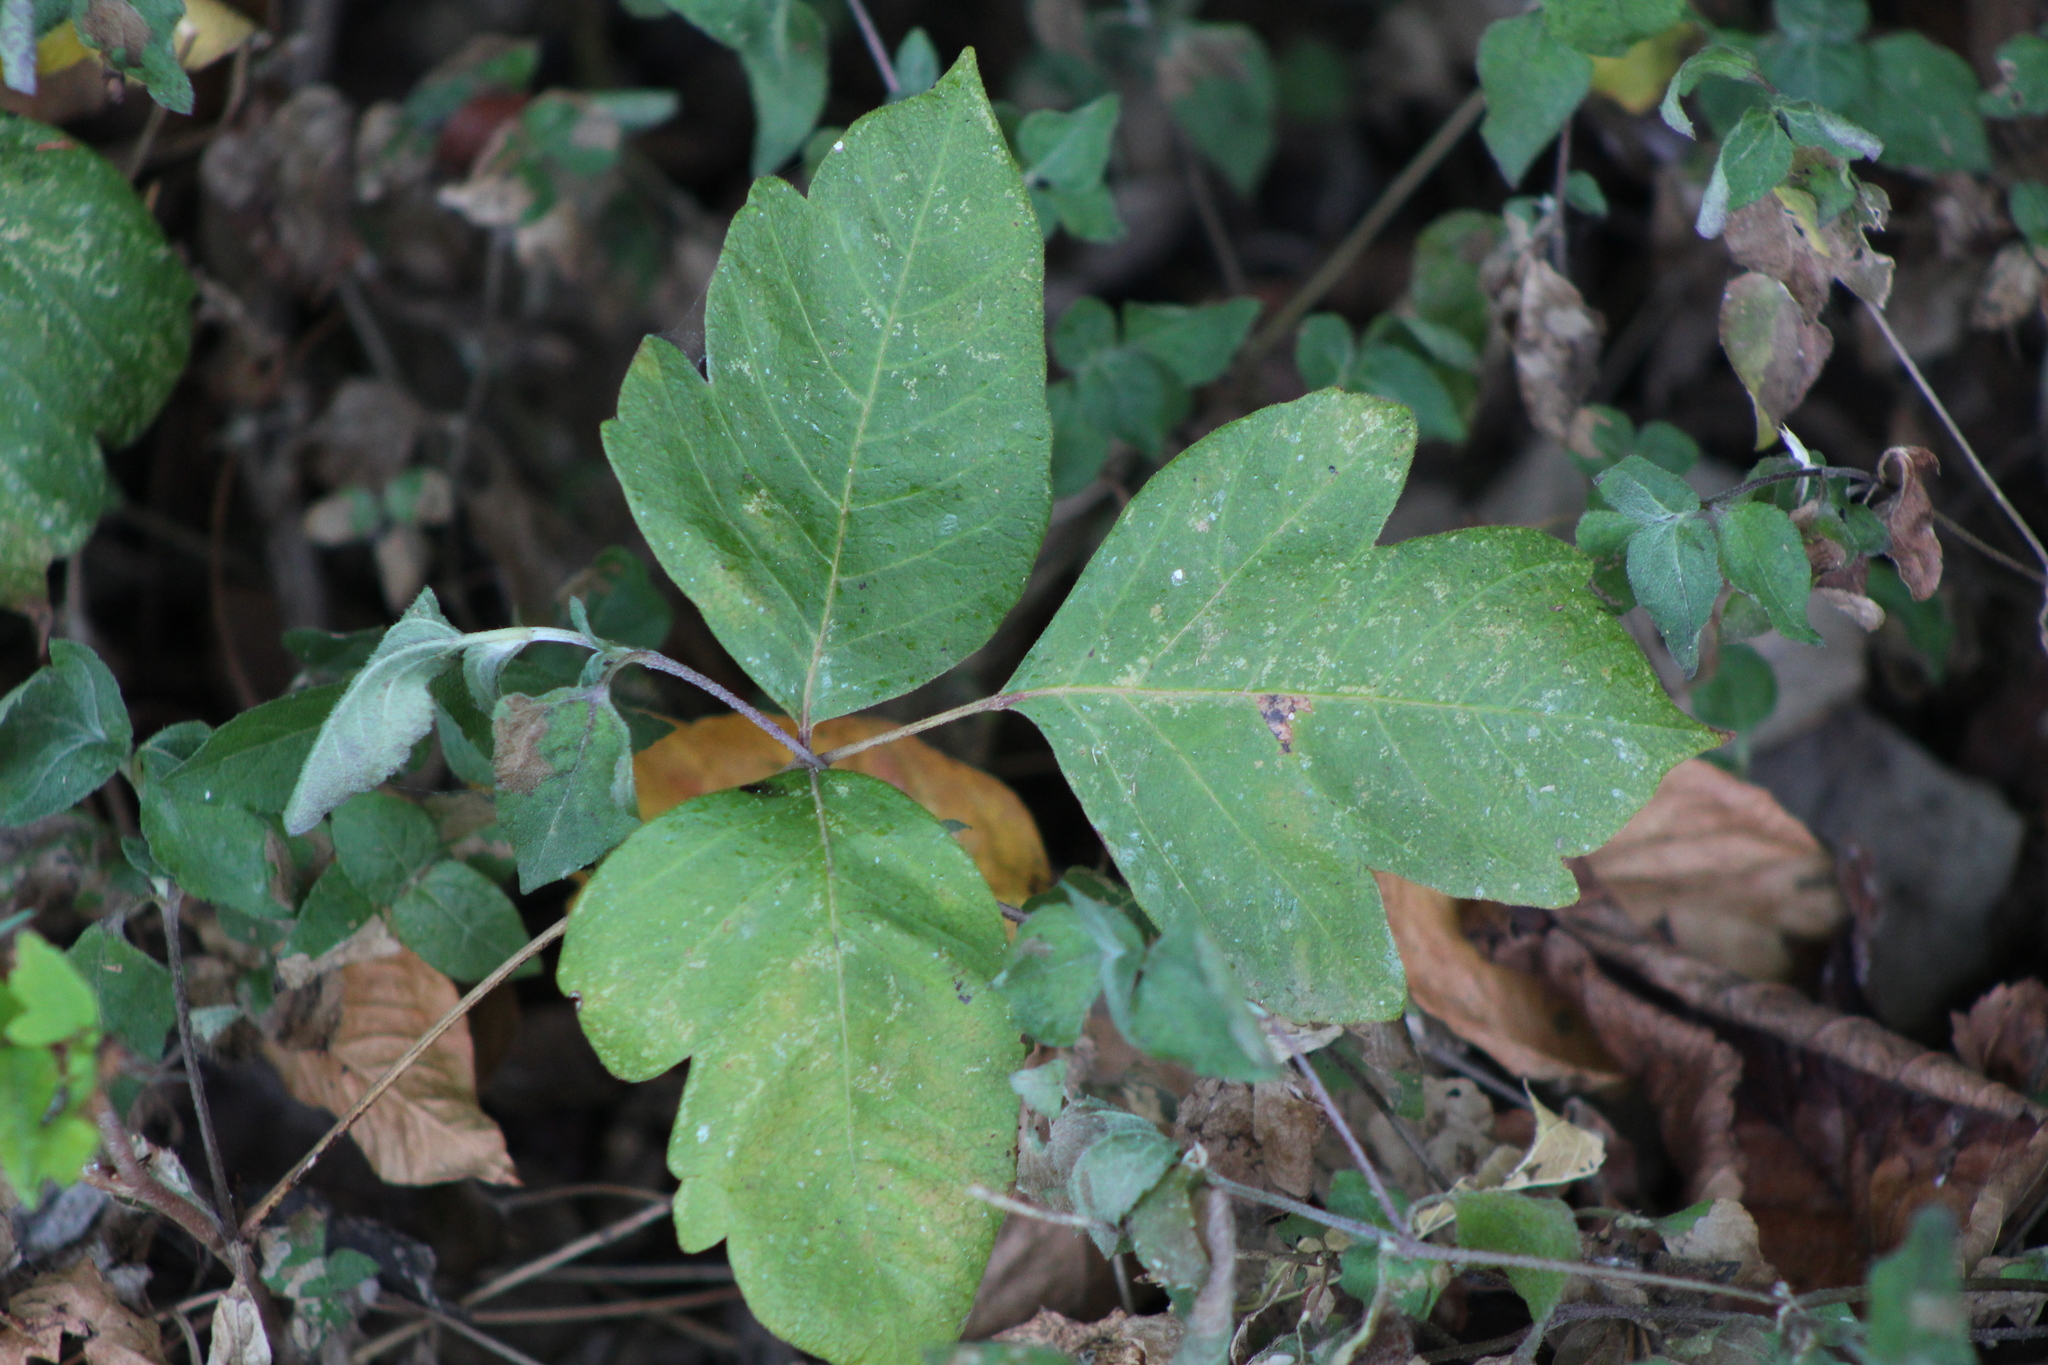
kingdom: Plantae
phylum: Tracheophyta
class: Magnoliopsida
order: Sapindales
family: Anacardiaceae
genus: Toxicodendron
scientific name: Toxicodendron radicans
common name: Poison ivy
